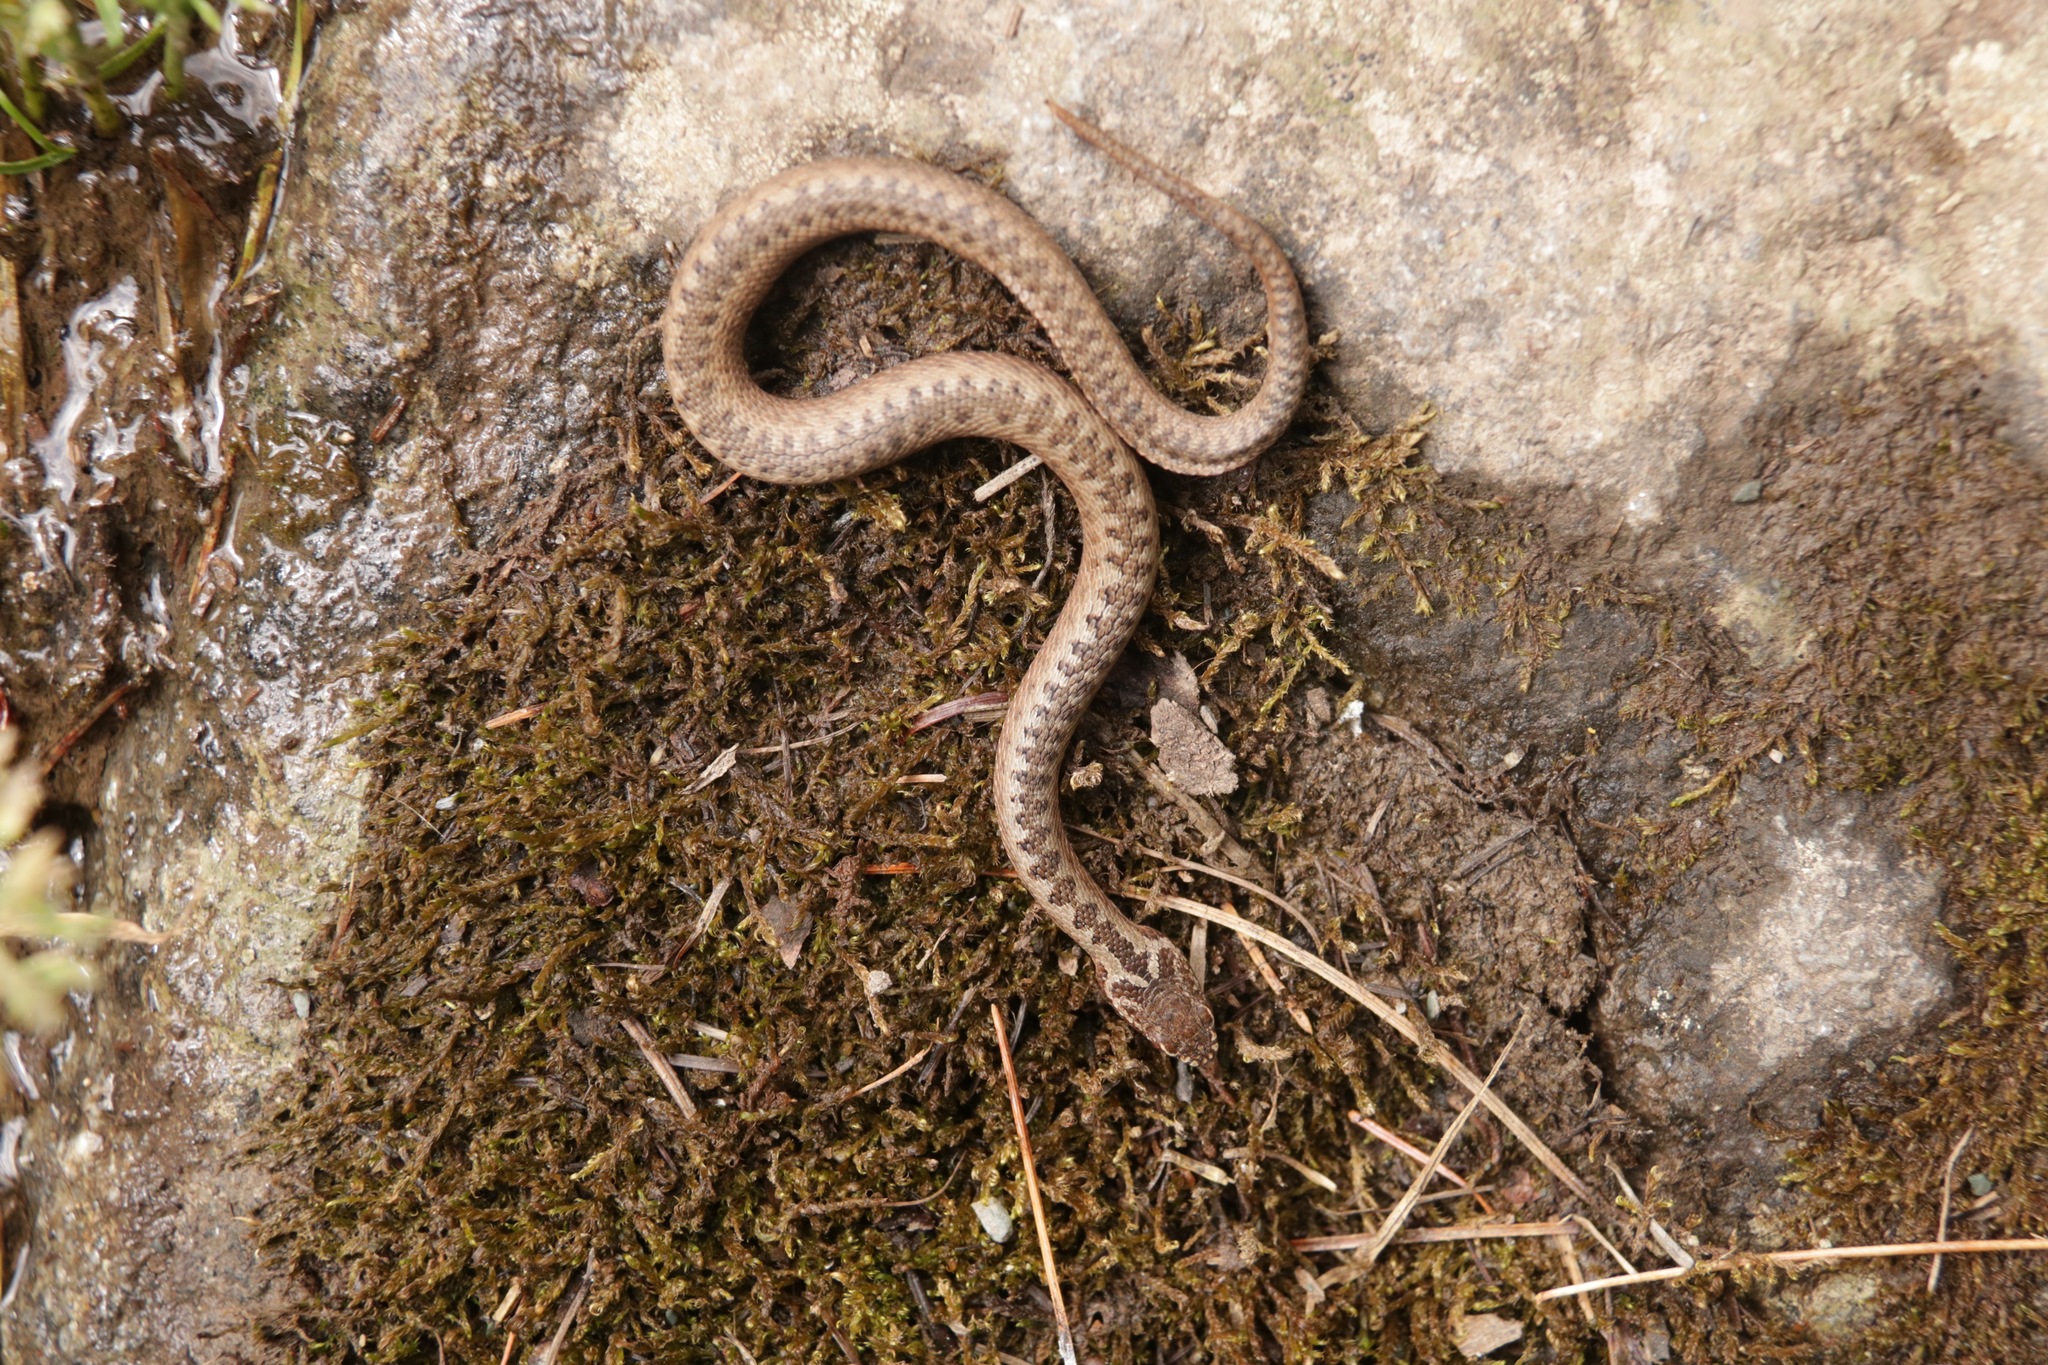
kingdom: Animalia
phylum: Chordata
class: Squamata
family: Viperidae
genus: Vipera
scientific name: Vipera berus
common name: Adder
